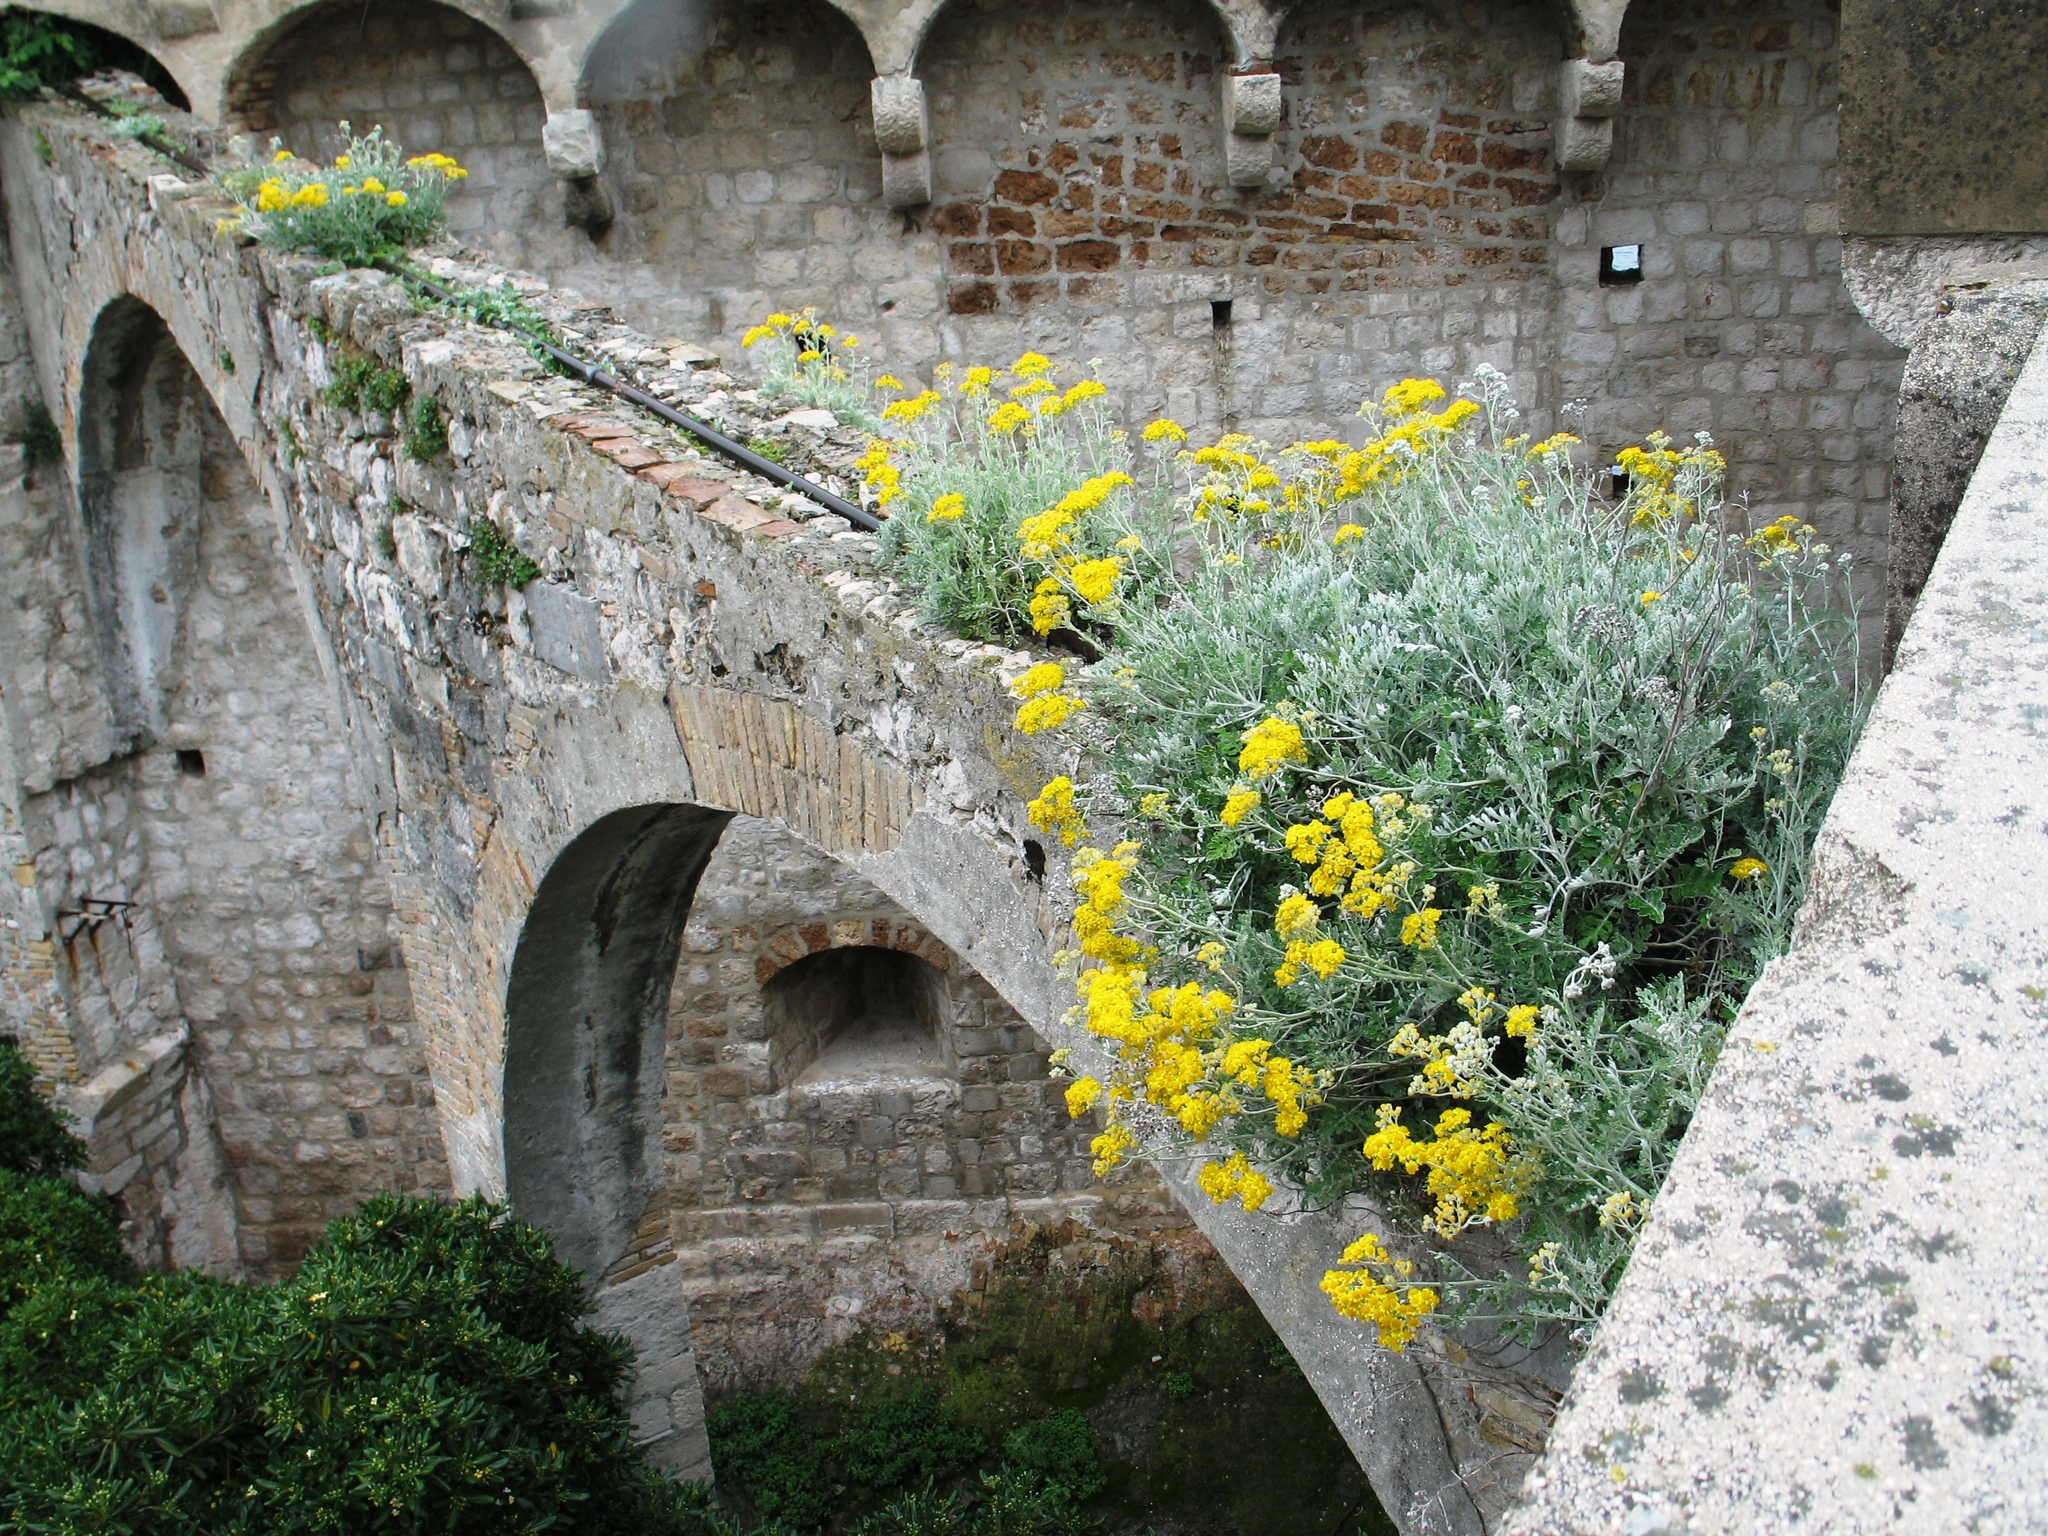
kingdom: Plantae
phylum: Tracheophyta
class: Magnoliopsida
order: Asterales
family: Asteraceae
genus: Jacobaea
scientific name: Jacobaea maritima
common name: Silver ragwort
